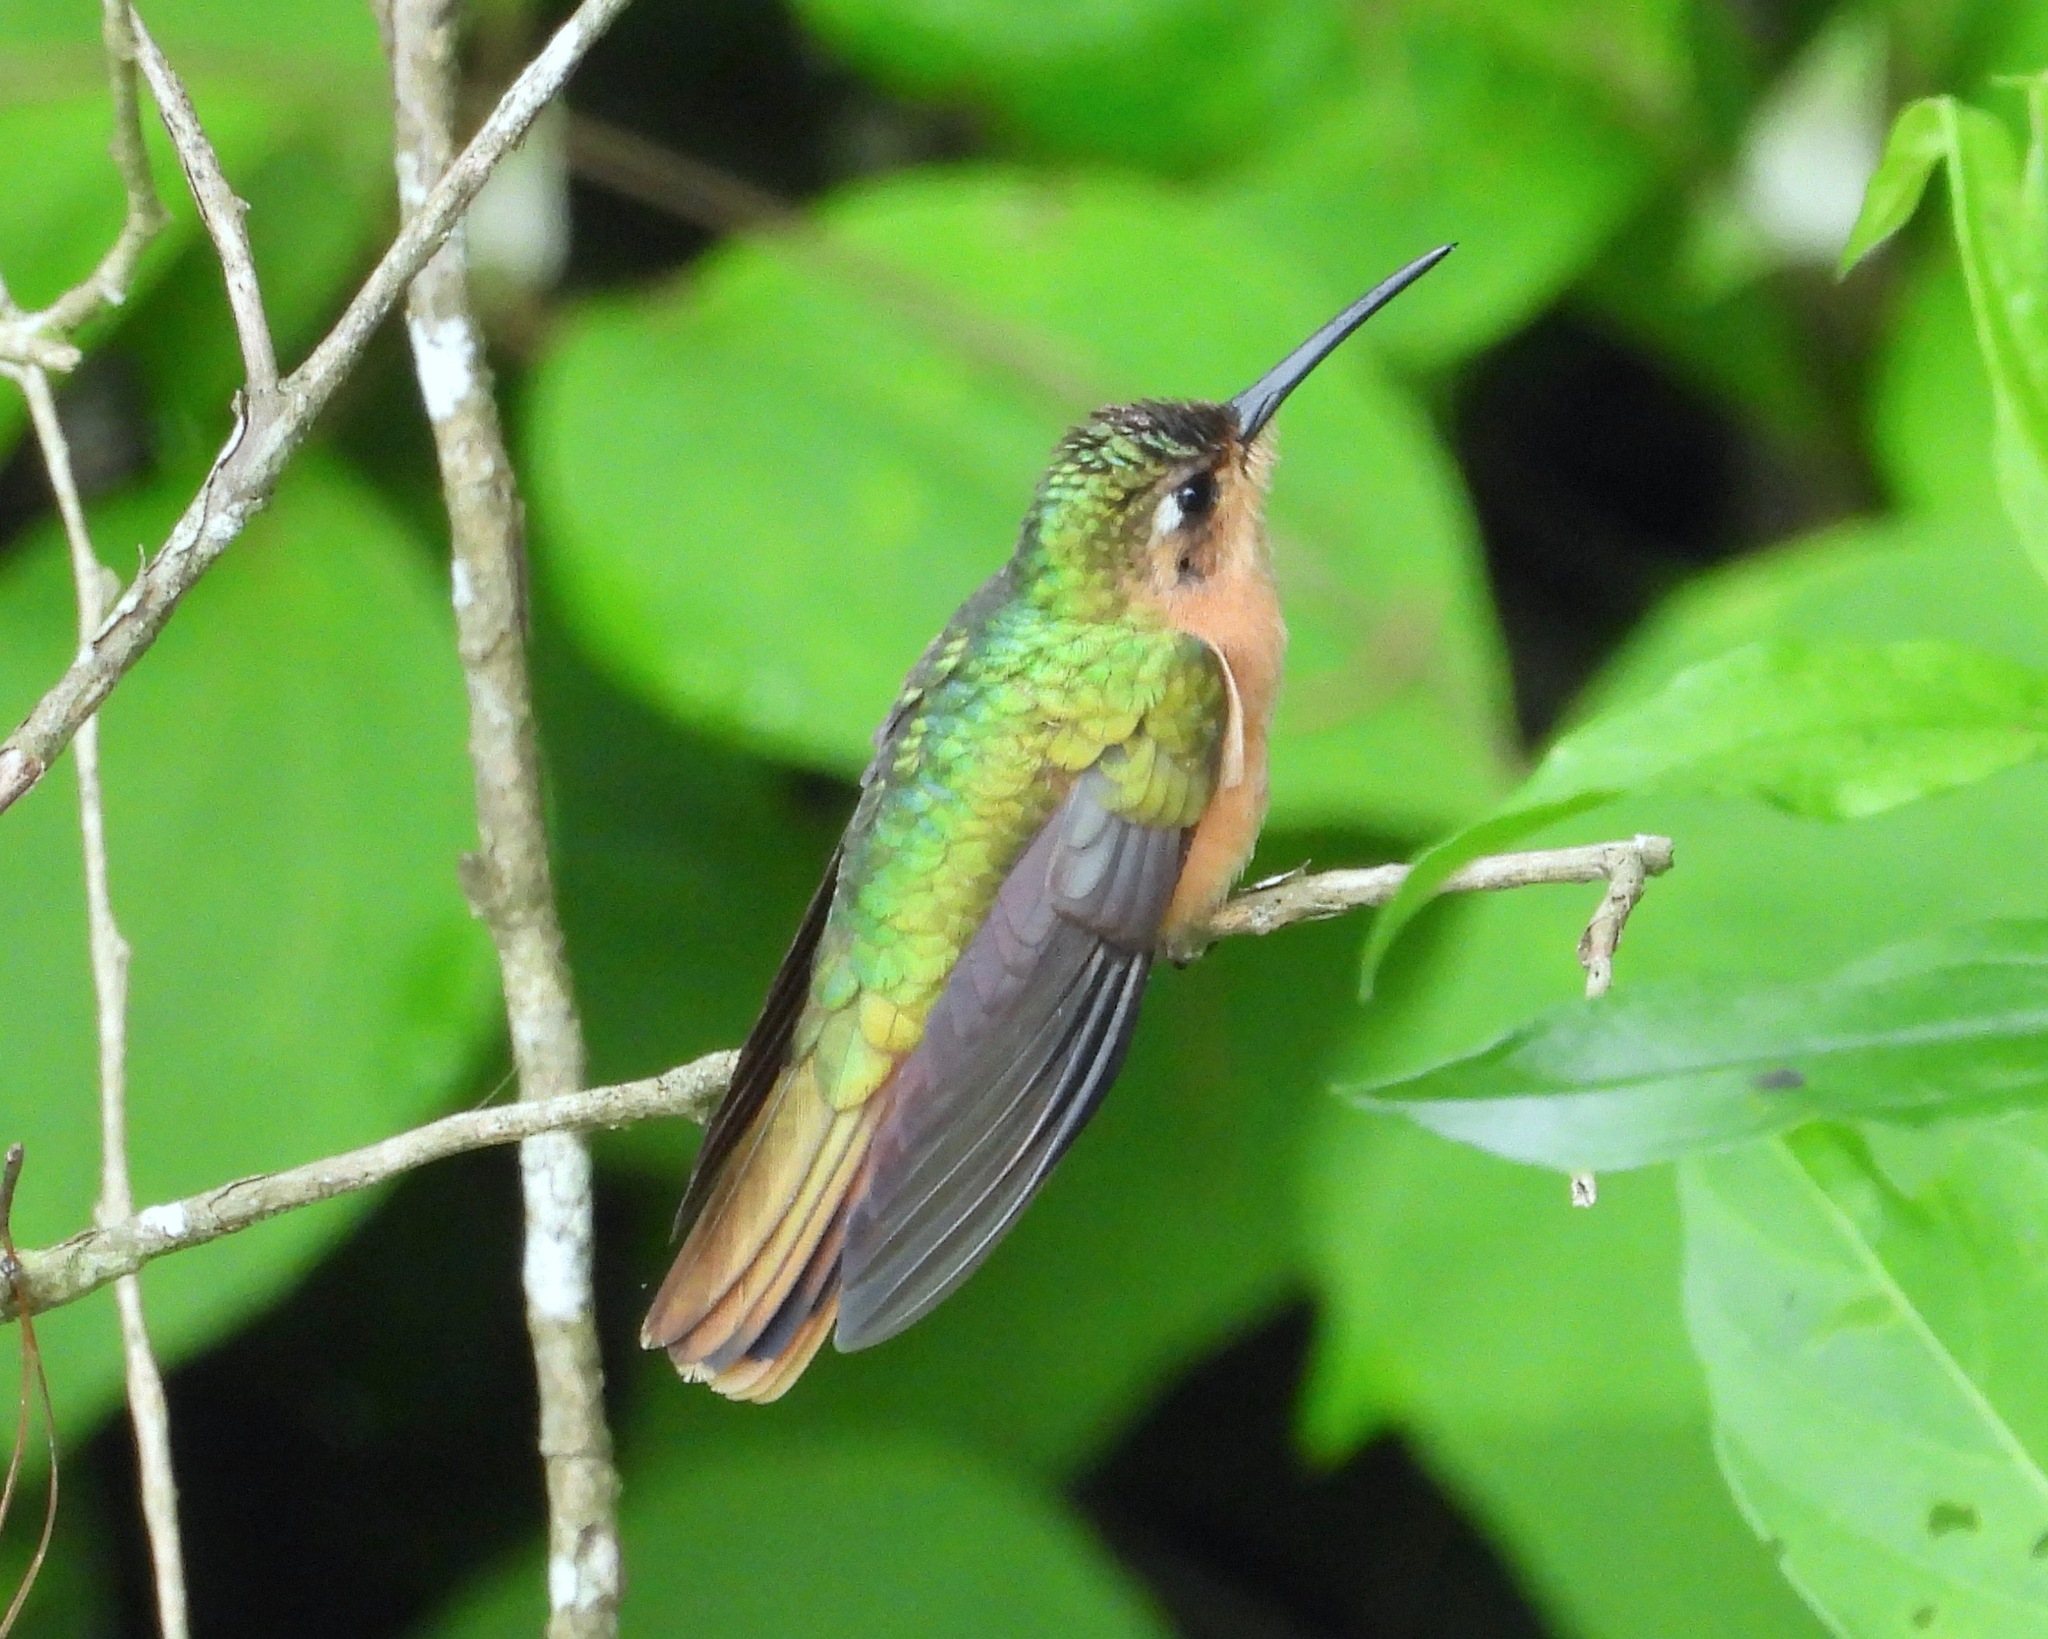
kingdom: Animalia
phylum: Chordata
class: Aves
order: Apodiformes
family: Trochilidae
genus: Pampa
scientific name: Pampa rufa
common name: Rufous sabrewing
